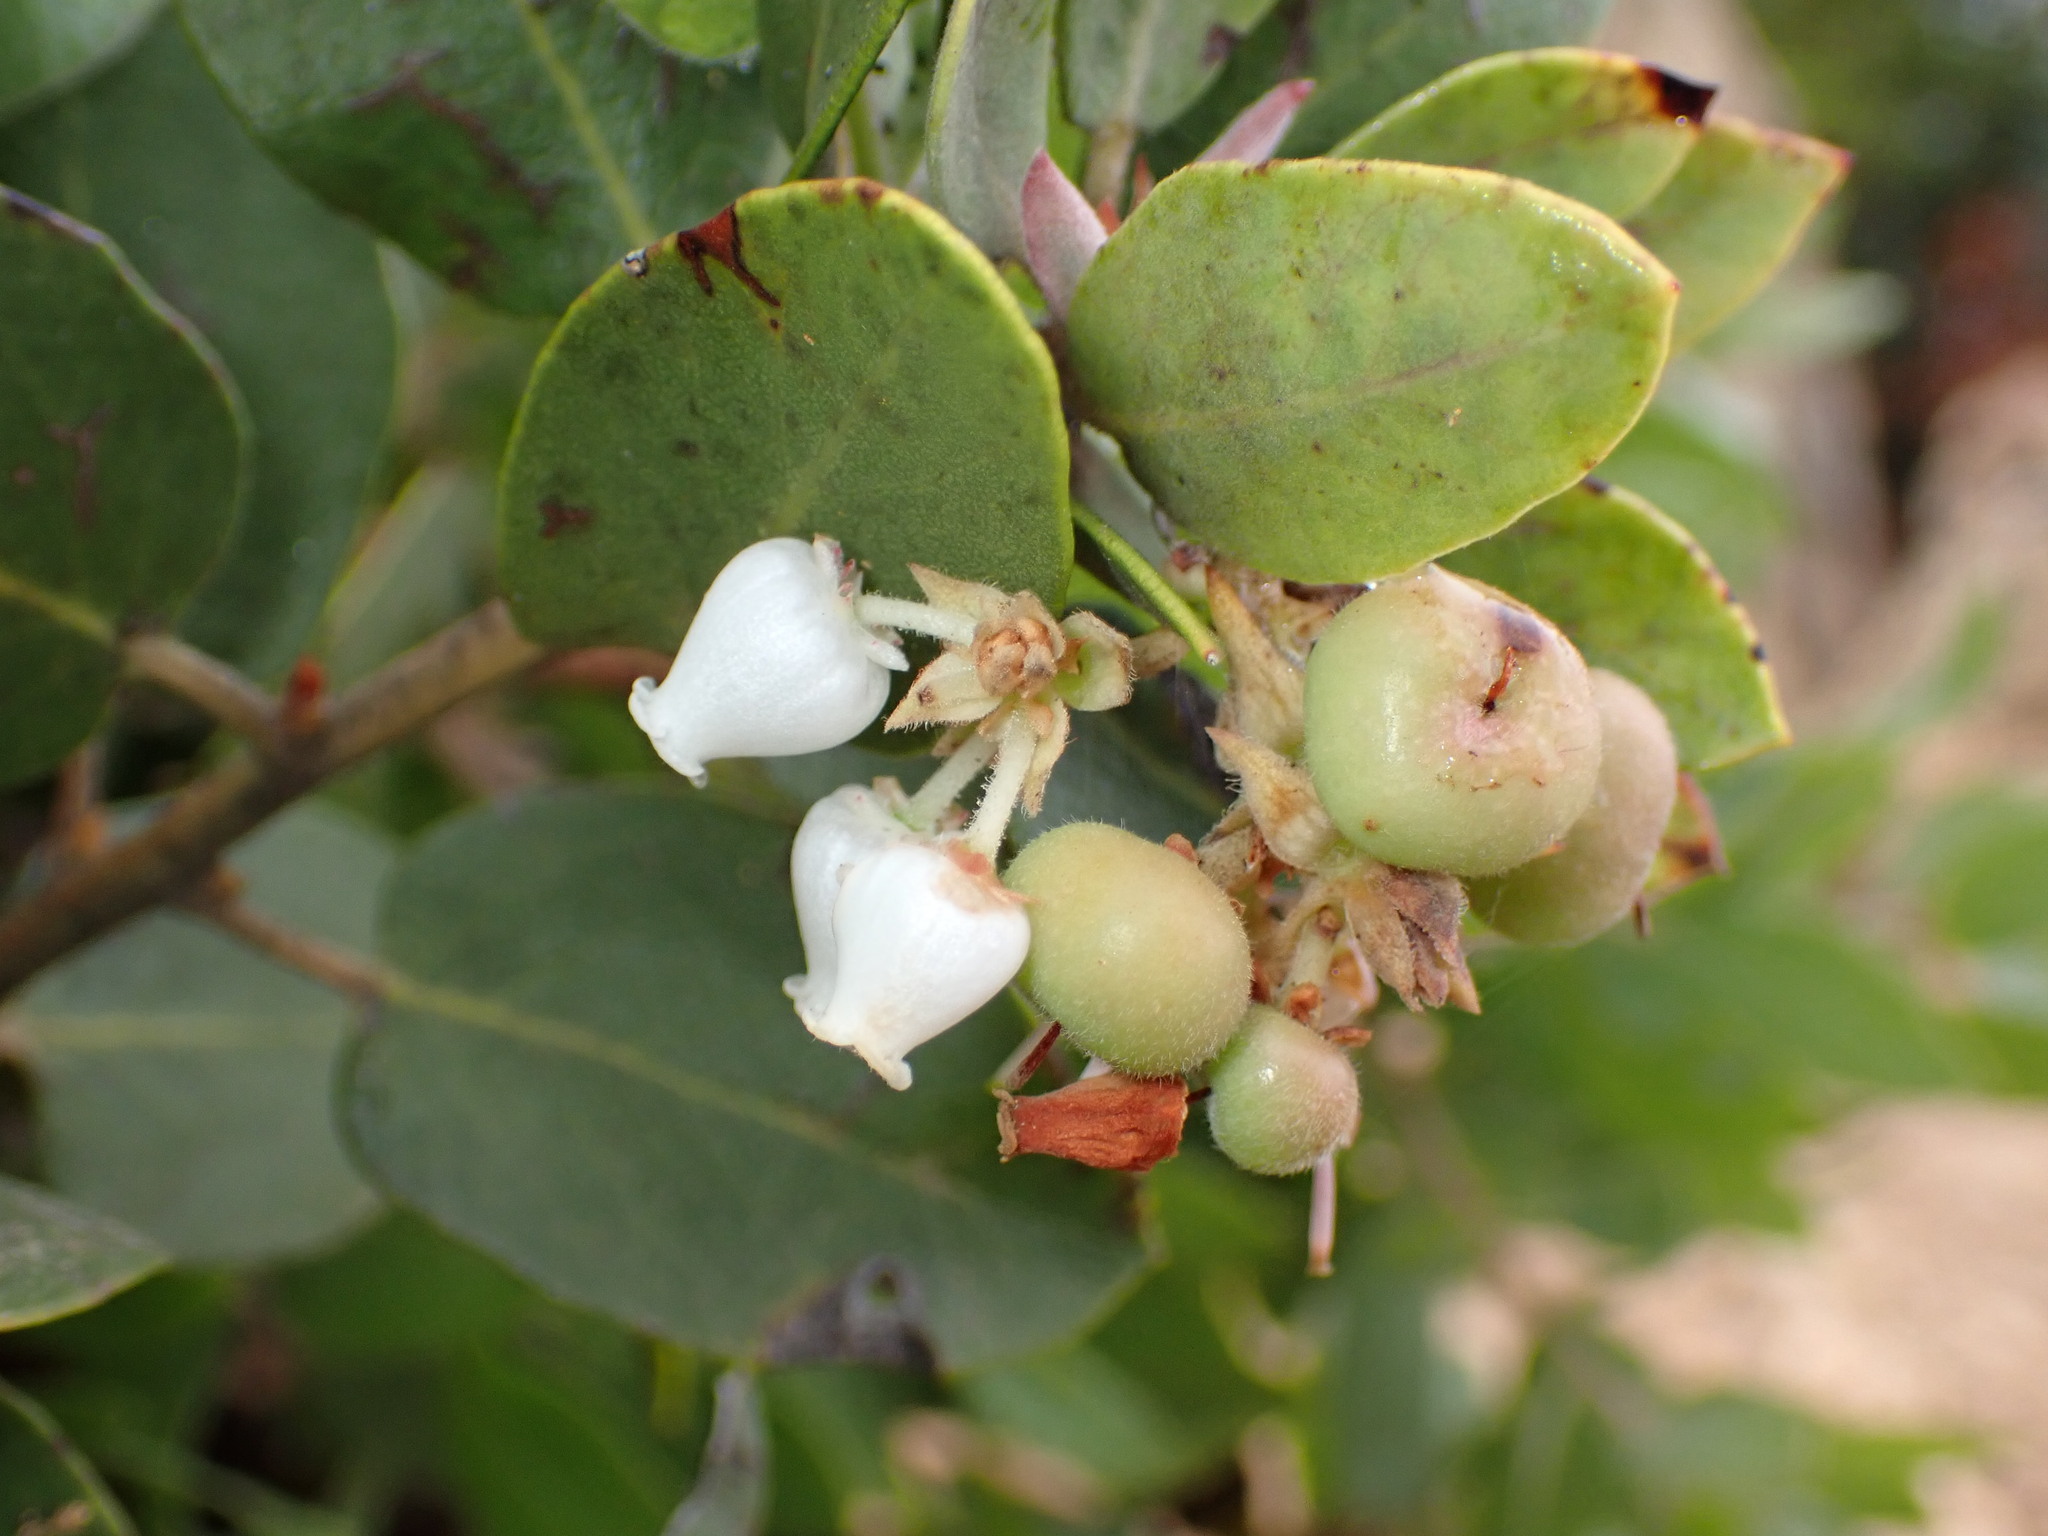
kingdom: Plantae
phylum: Tracheophyta
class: Magnoliopsida
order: Ericales
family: Ericaceae
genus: Arctostaphylos
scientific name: Arctostaphylos glandulosa
